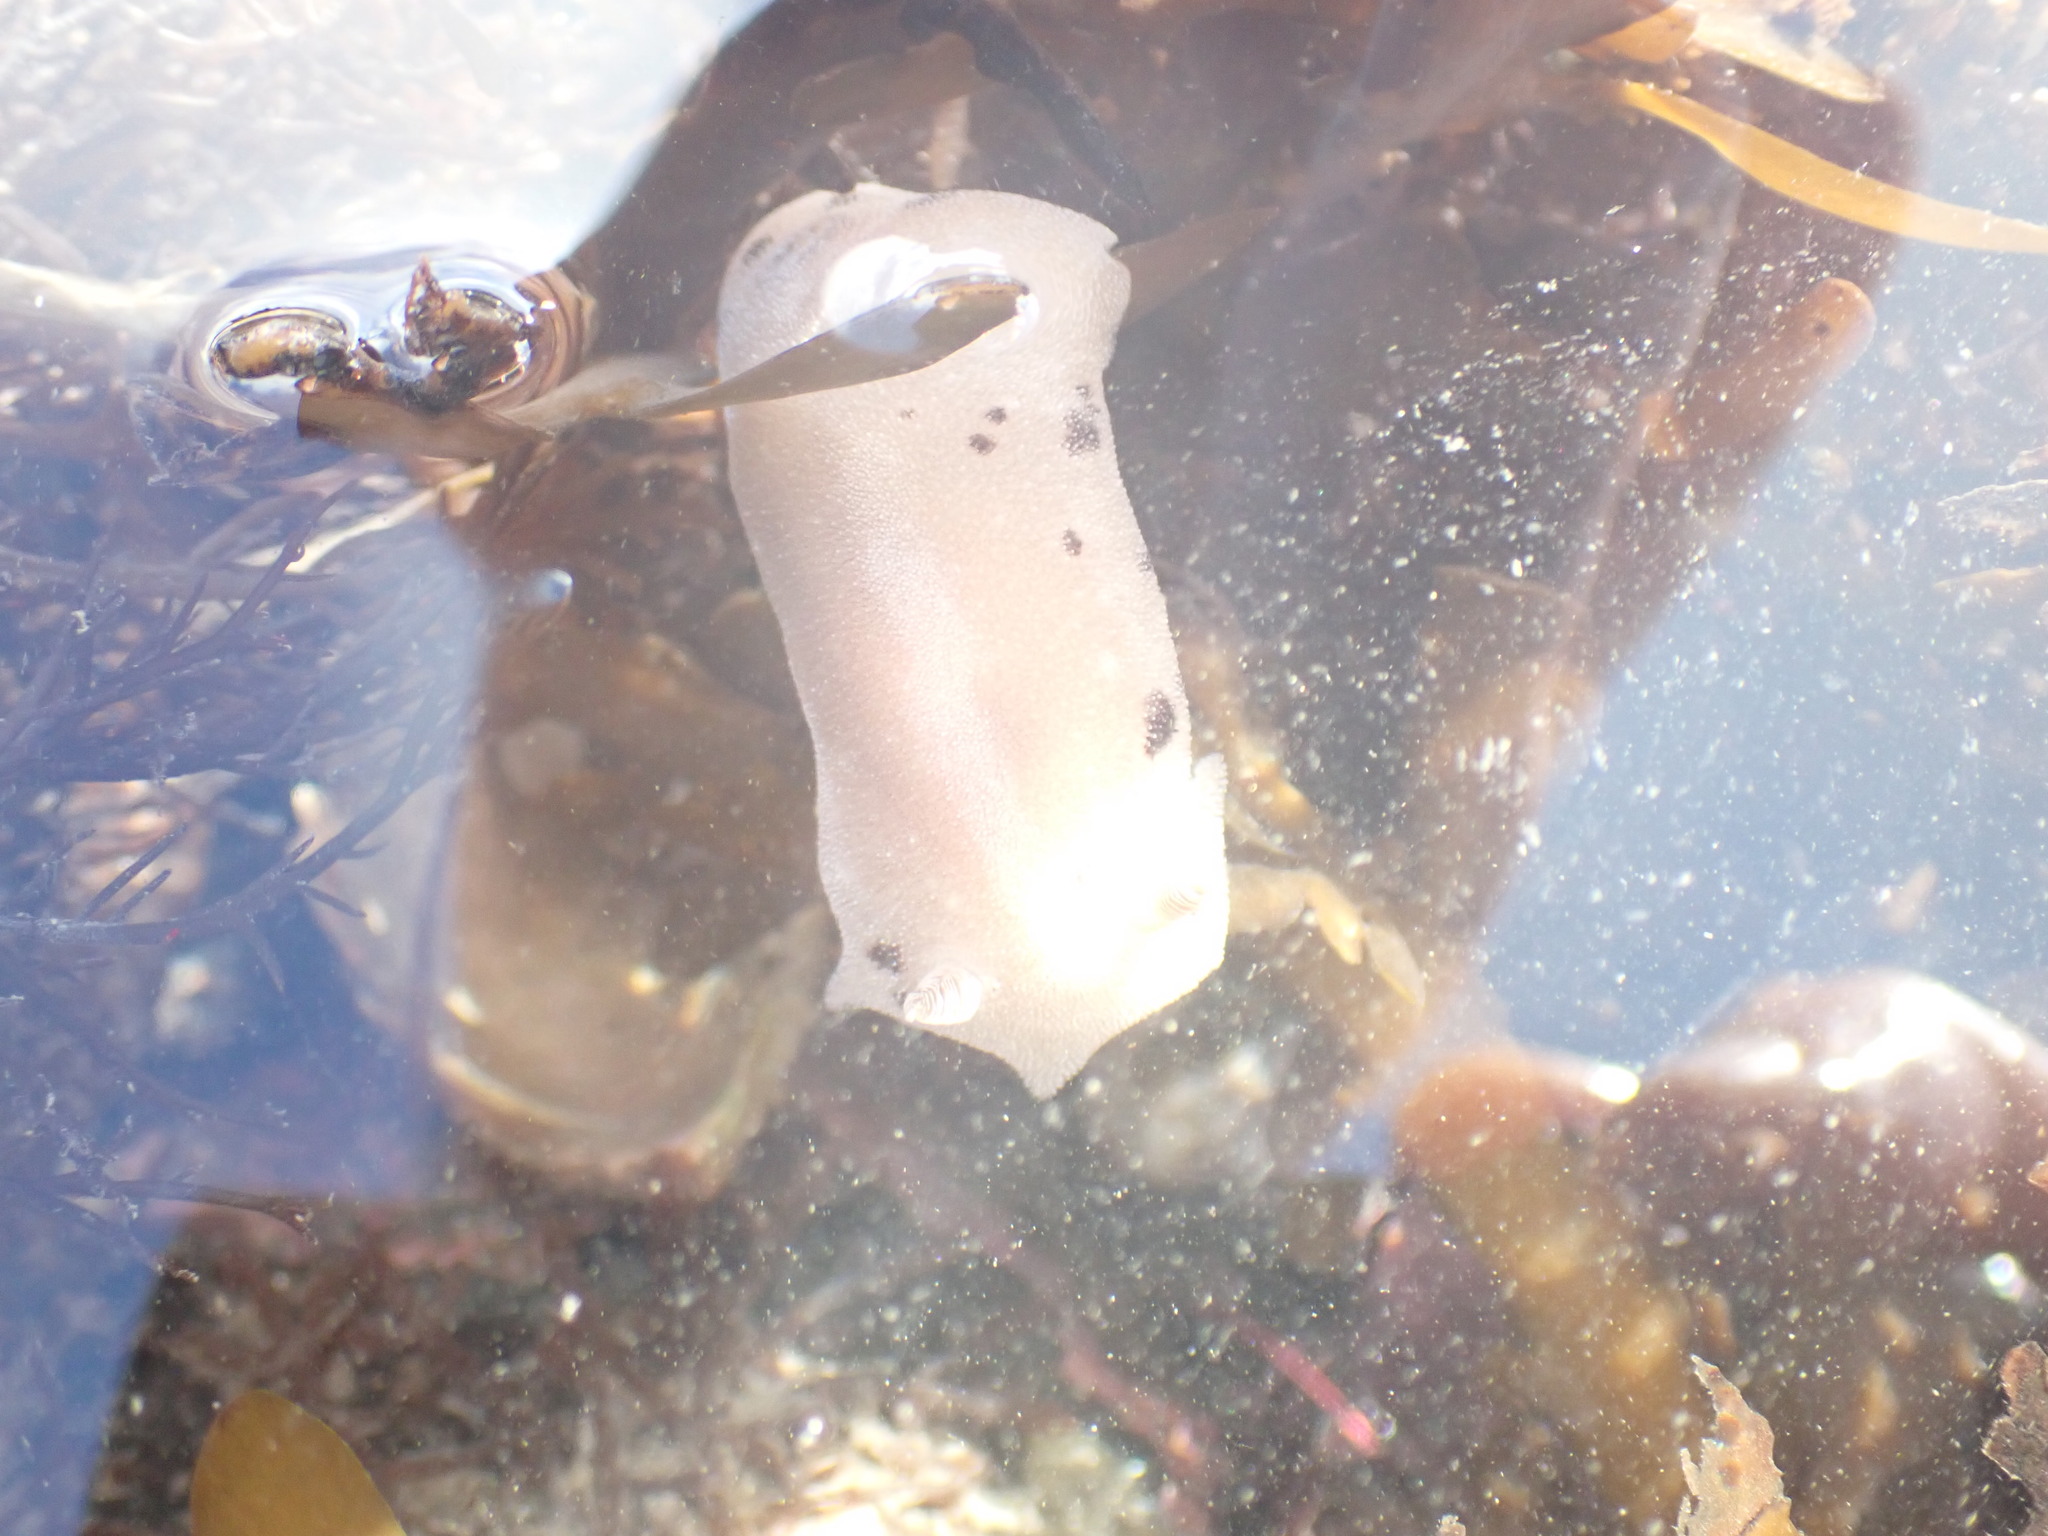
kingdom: Animalia
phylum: Mollusca
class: Gastropoda
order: Nudibranchia
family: Discodorididae
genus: Alloiodoris
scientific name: Alloiodoris lanuginata
